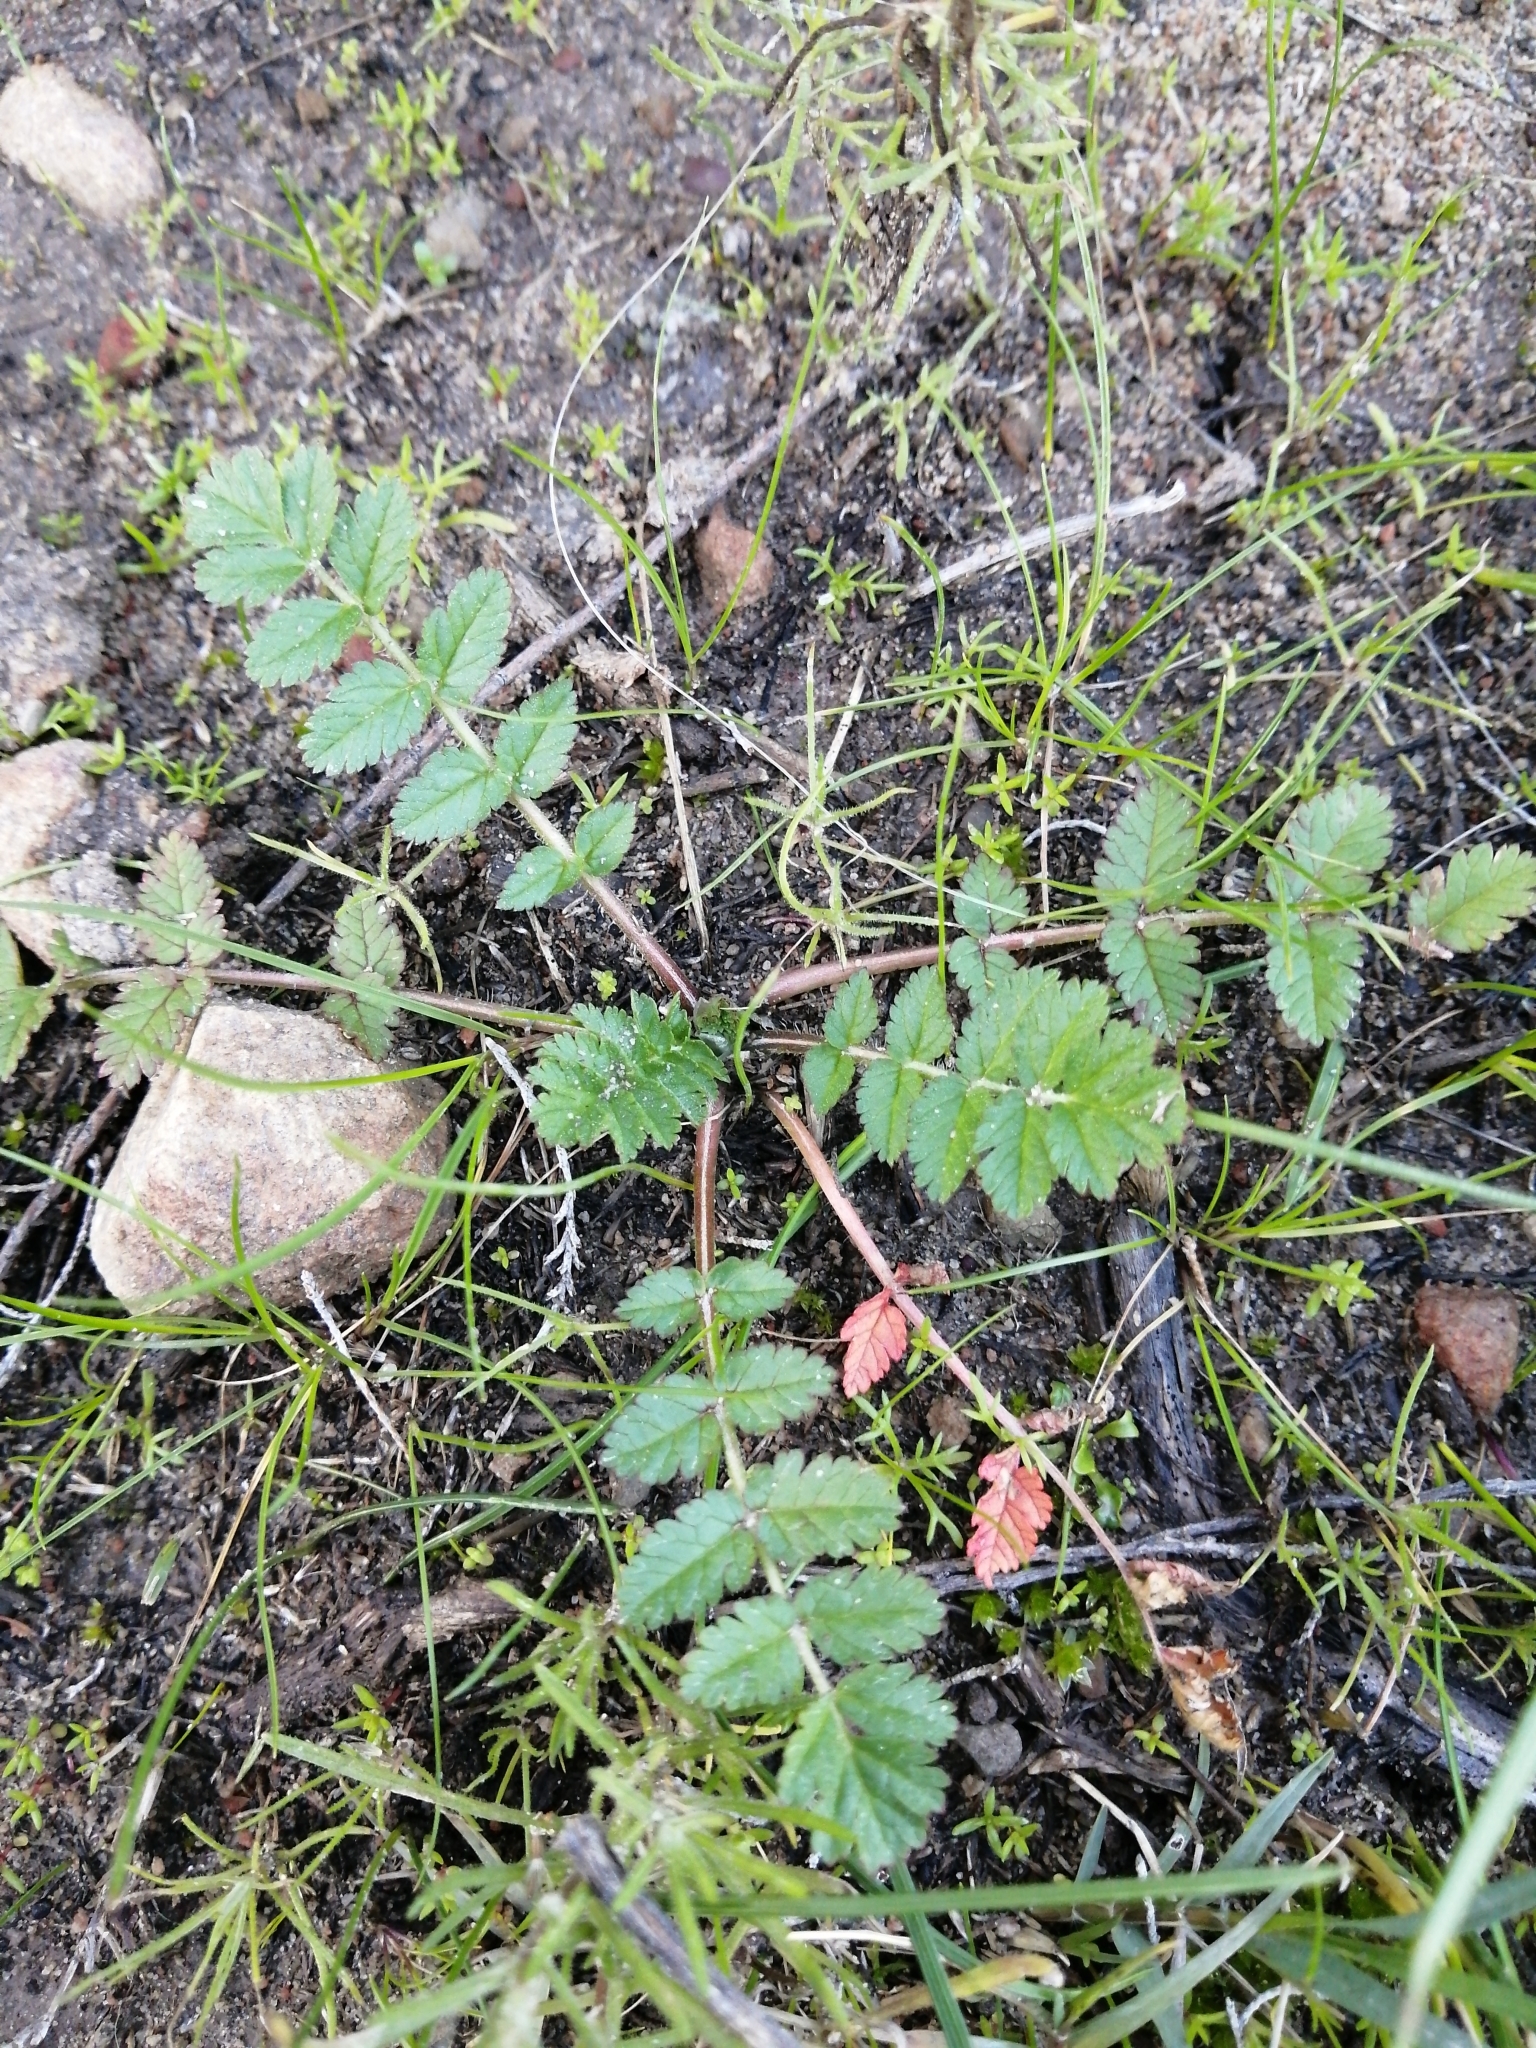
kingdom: Plantae
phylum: Tracheophyta
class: Magnoliopsida
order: Geraniales
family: Geraniaceae
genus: Erodium
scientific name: Erodium moschatum
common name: Musk stork's-bill
